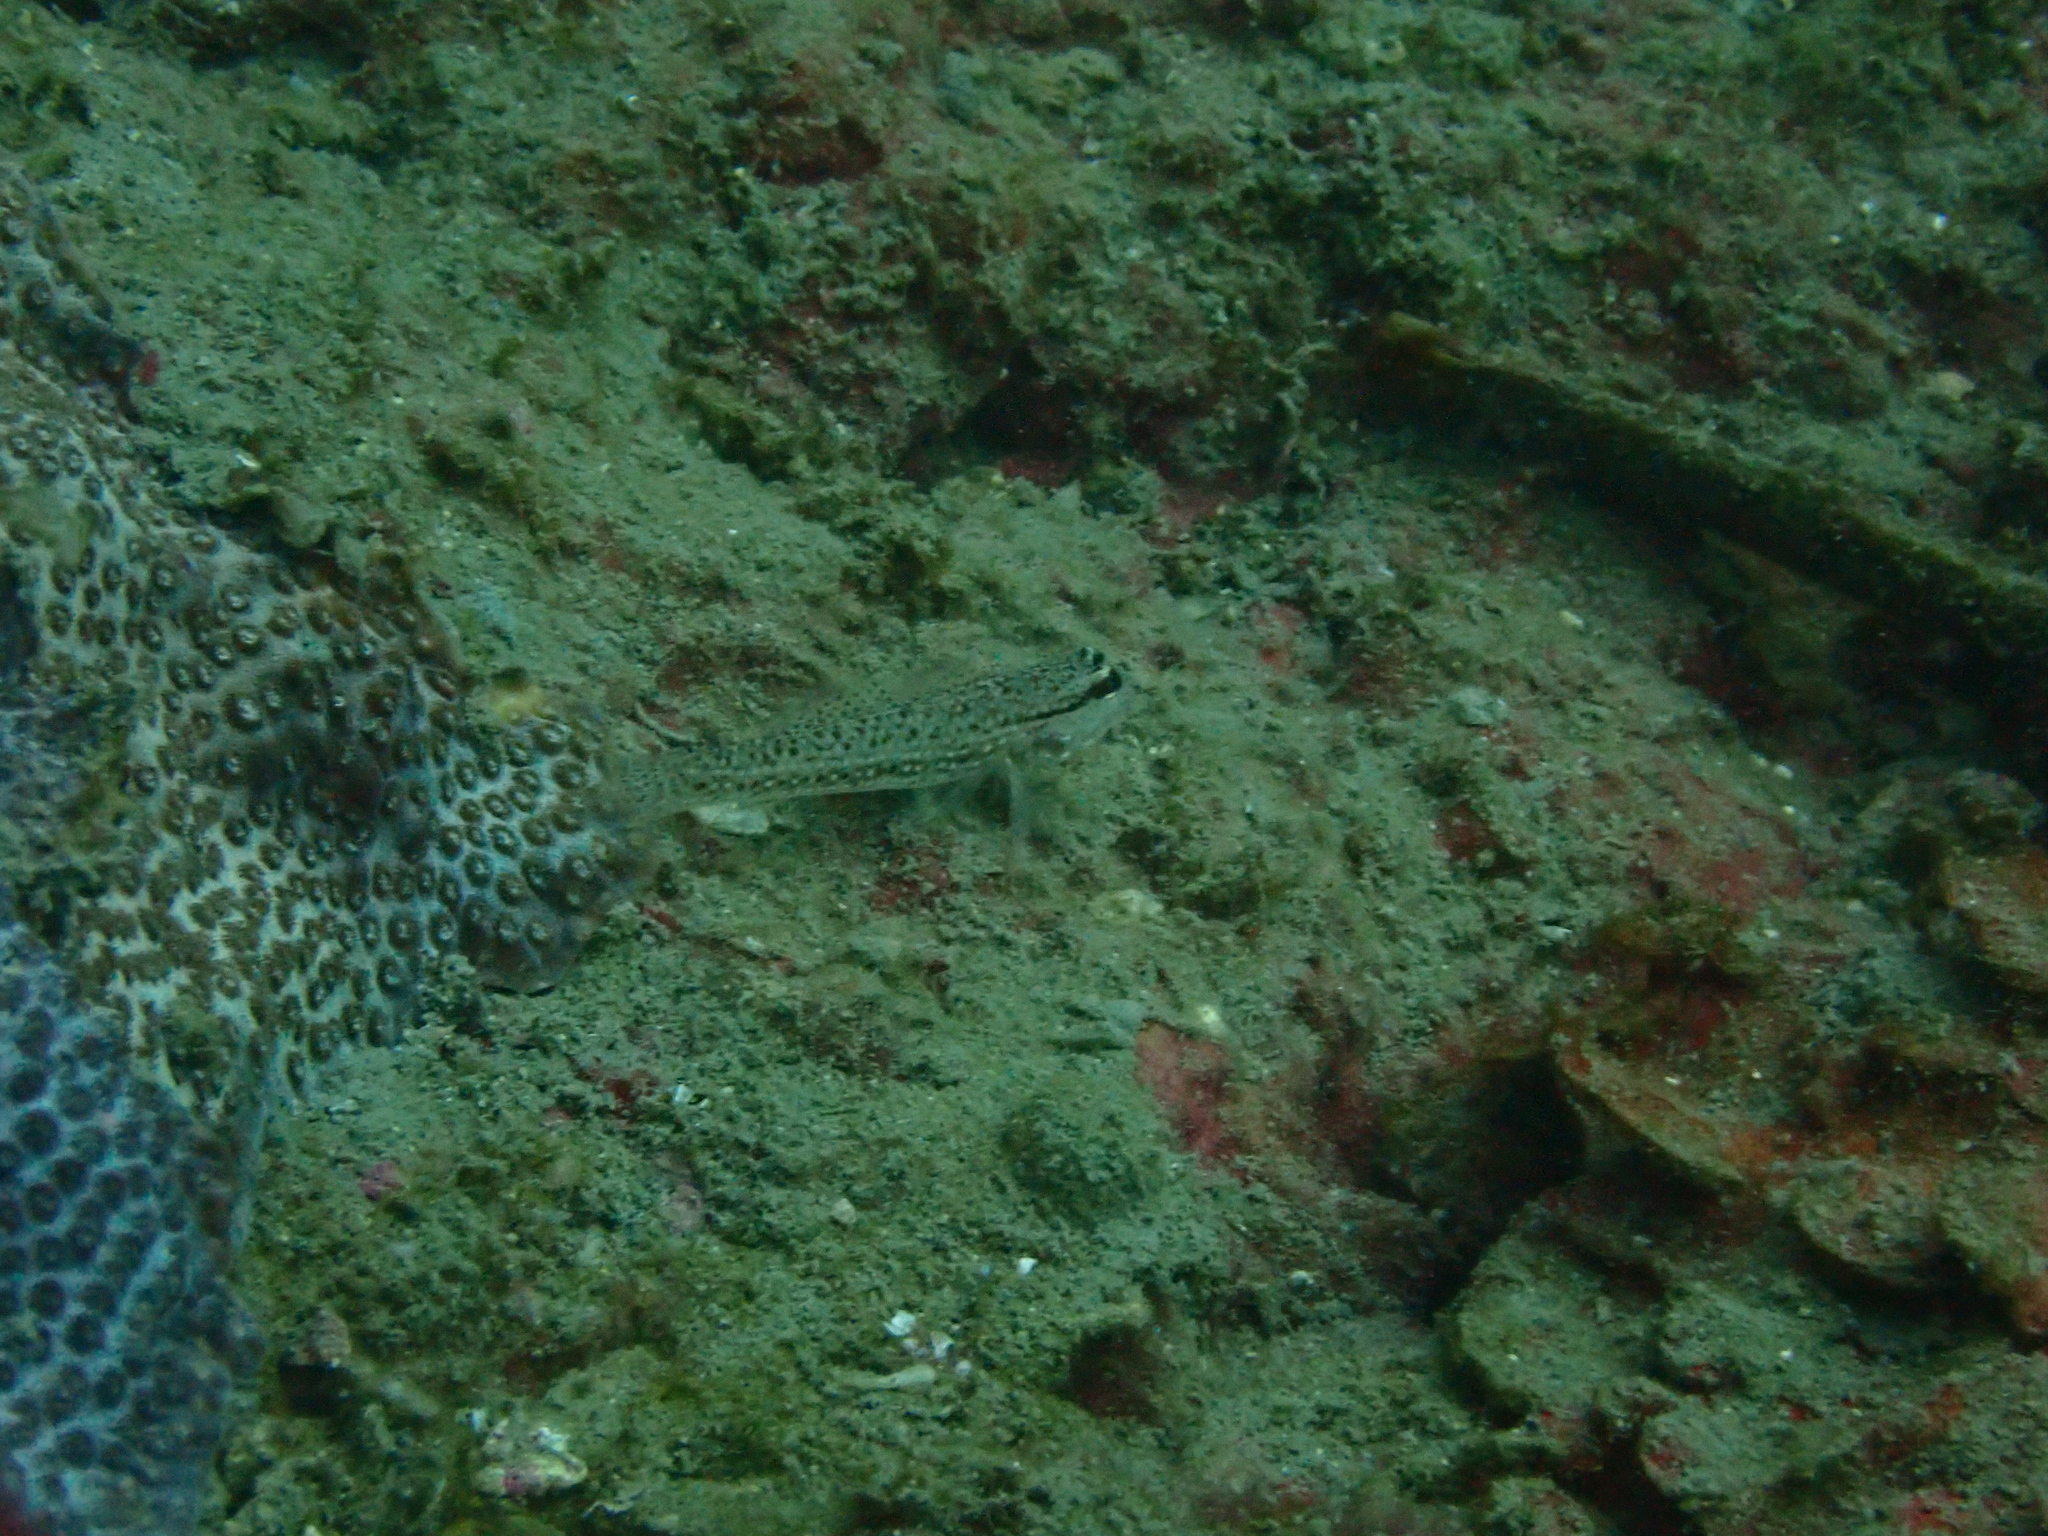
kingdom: Animalia
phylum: Chordata
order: Perciformes
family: Gobiidae
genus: Istigobius
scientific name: Istigobius campbelli
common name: Campbel's goby
